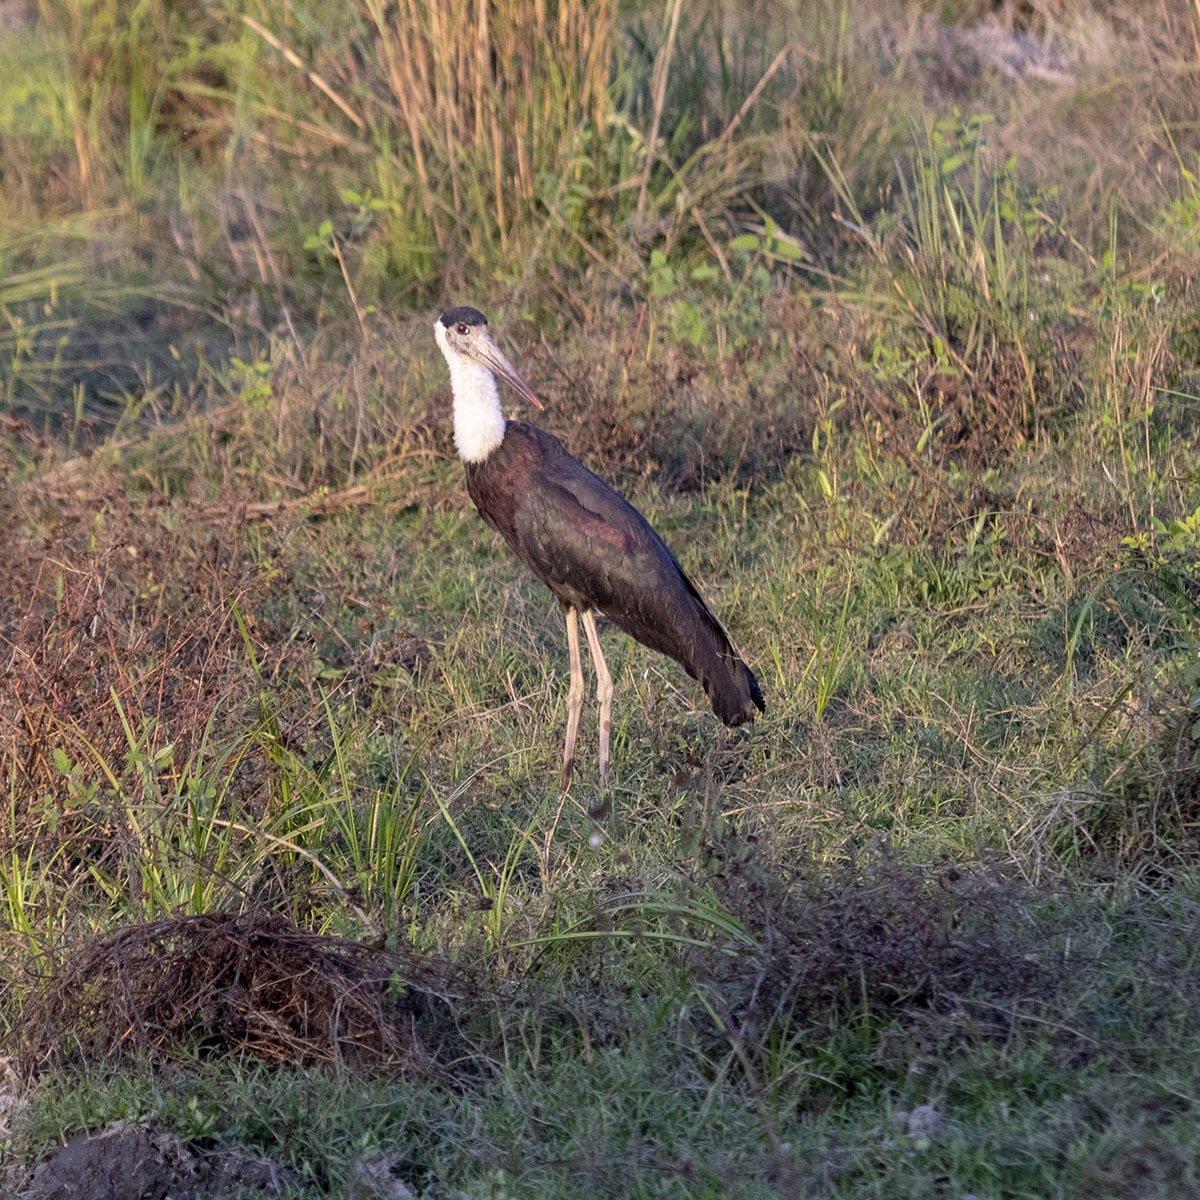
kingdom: Animalia
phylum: Chordata
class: Aves
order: Ciconiiformes
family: Ciconiidae
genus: Ciconia
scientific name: Ciconia episcopus
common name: Woolly-necked stork
